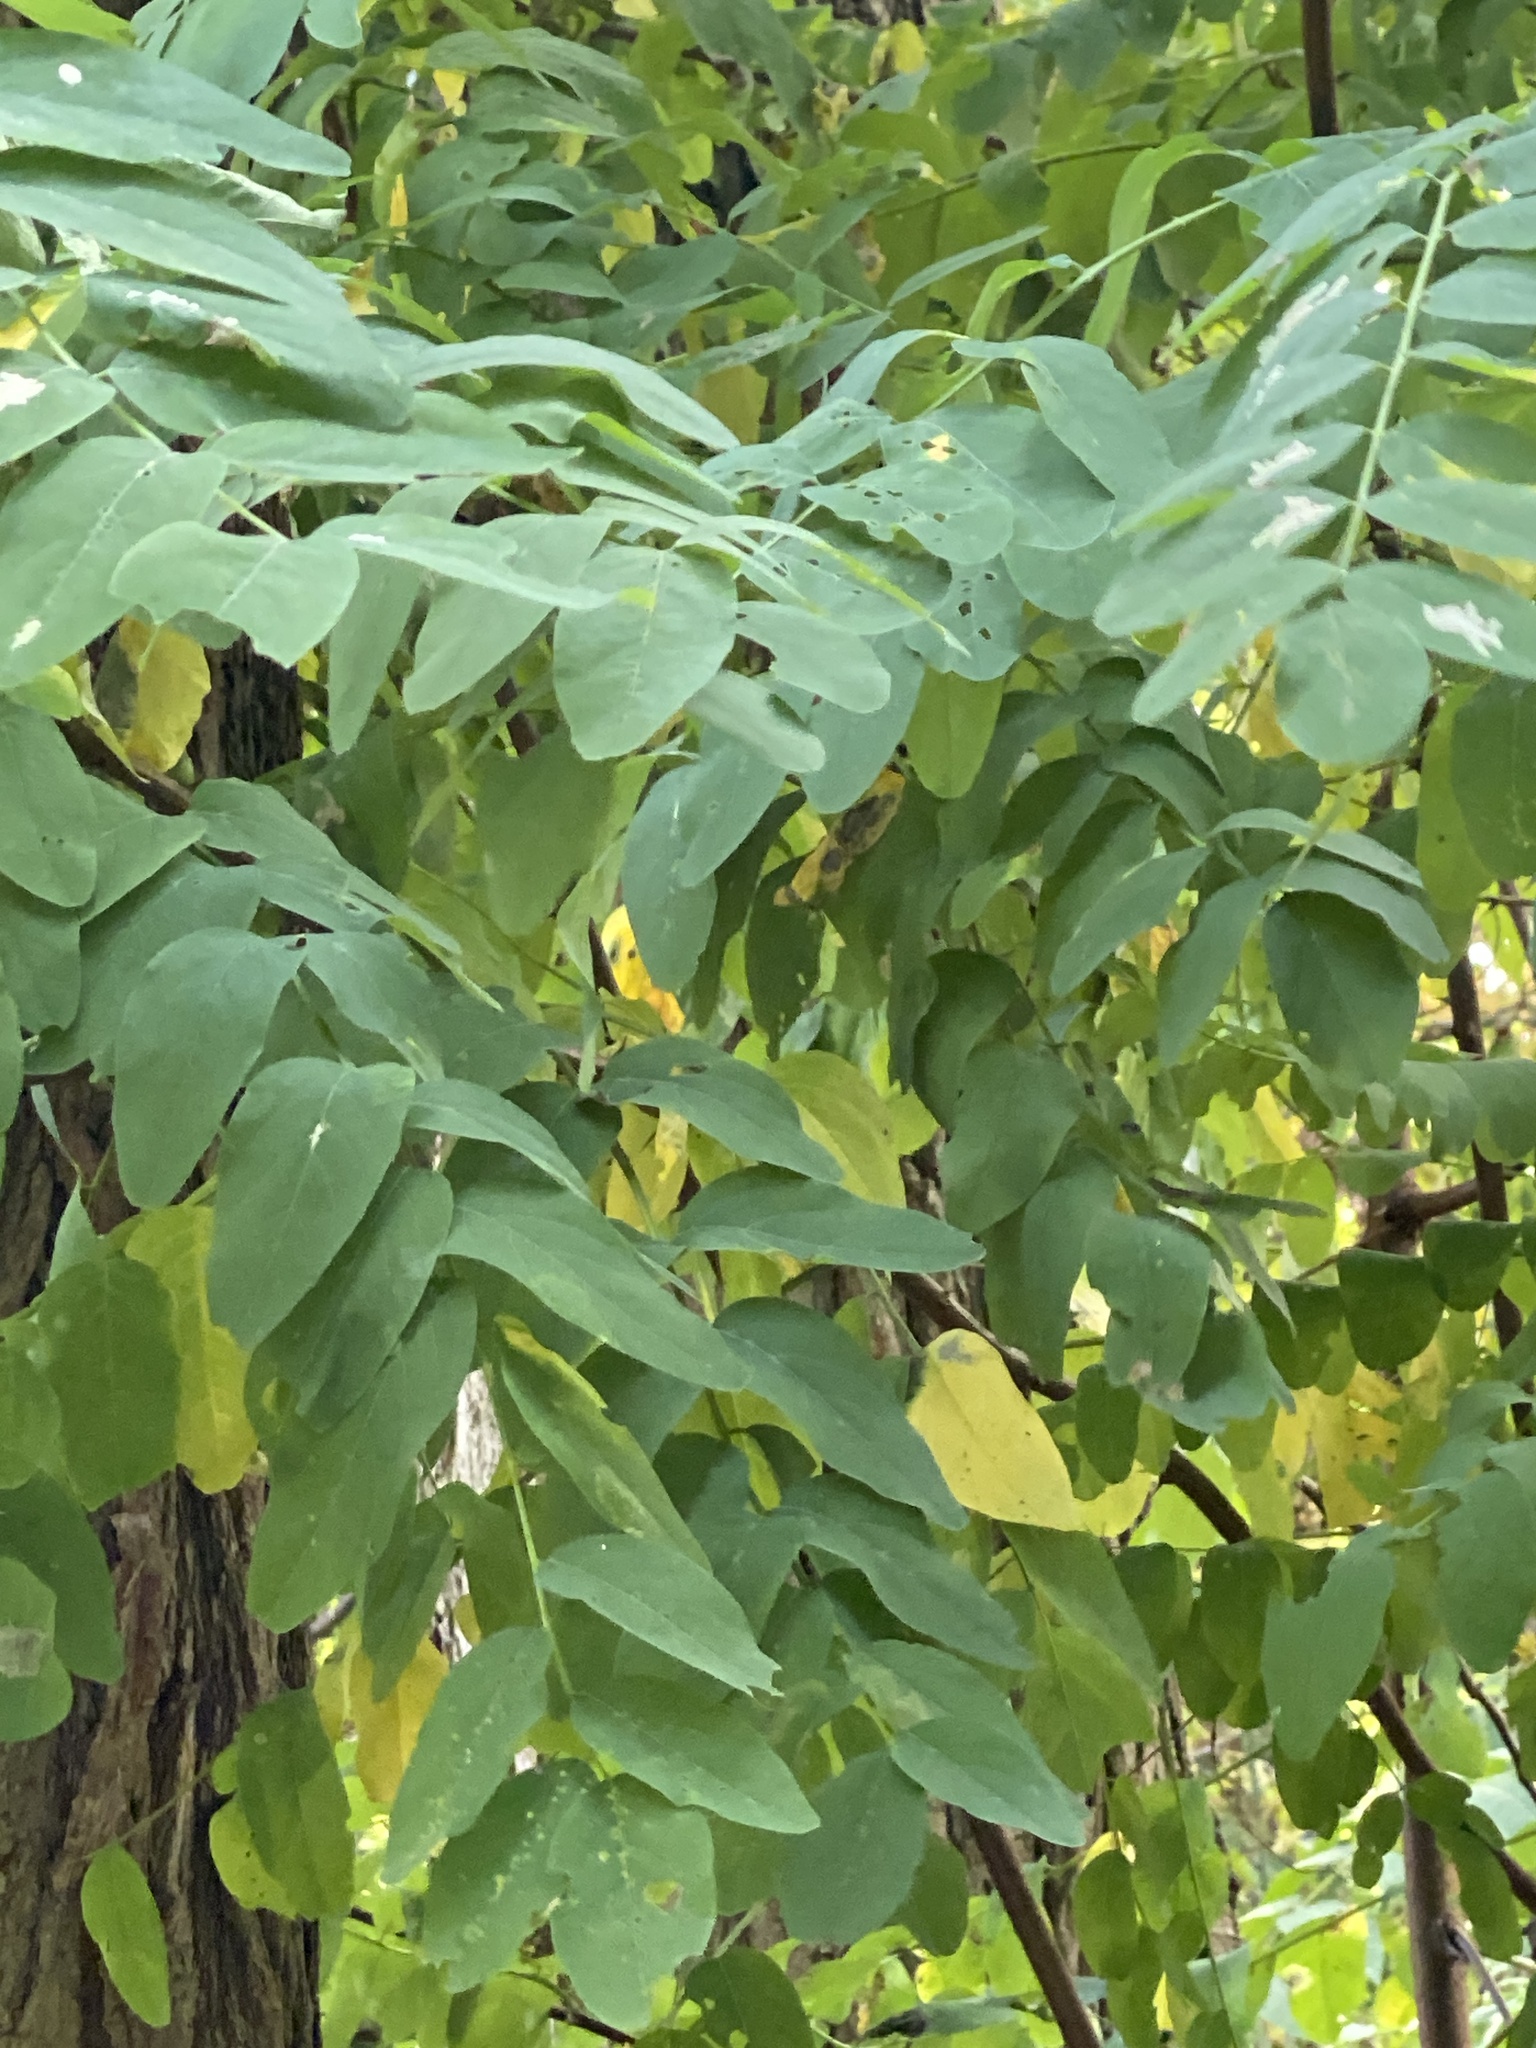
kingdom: Plantae
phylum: Tracheophyta
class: Magnoliopsida
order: Fabales
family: Fabaceae
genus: Robinia
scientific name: Robinia pseudoacacia
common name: Black locust
